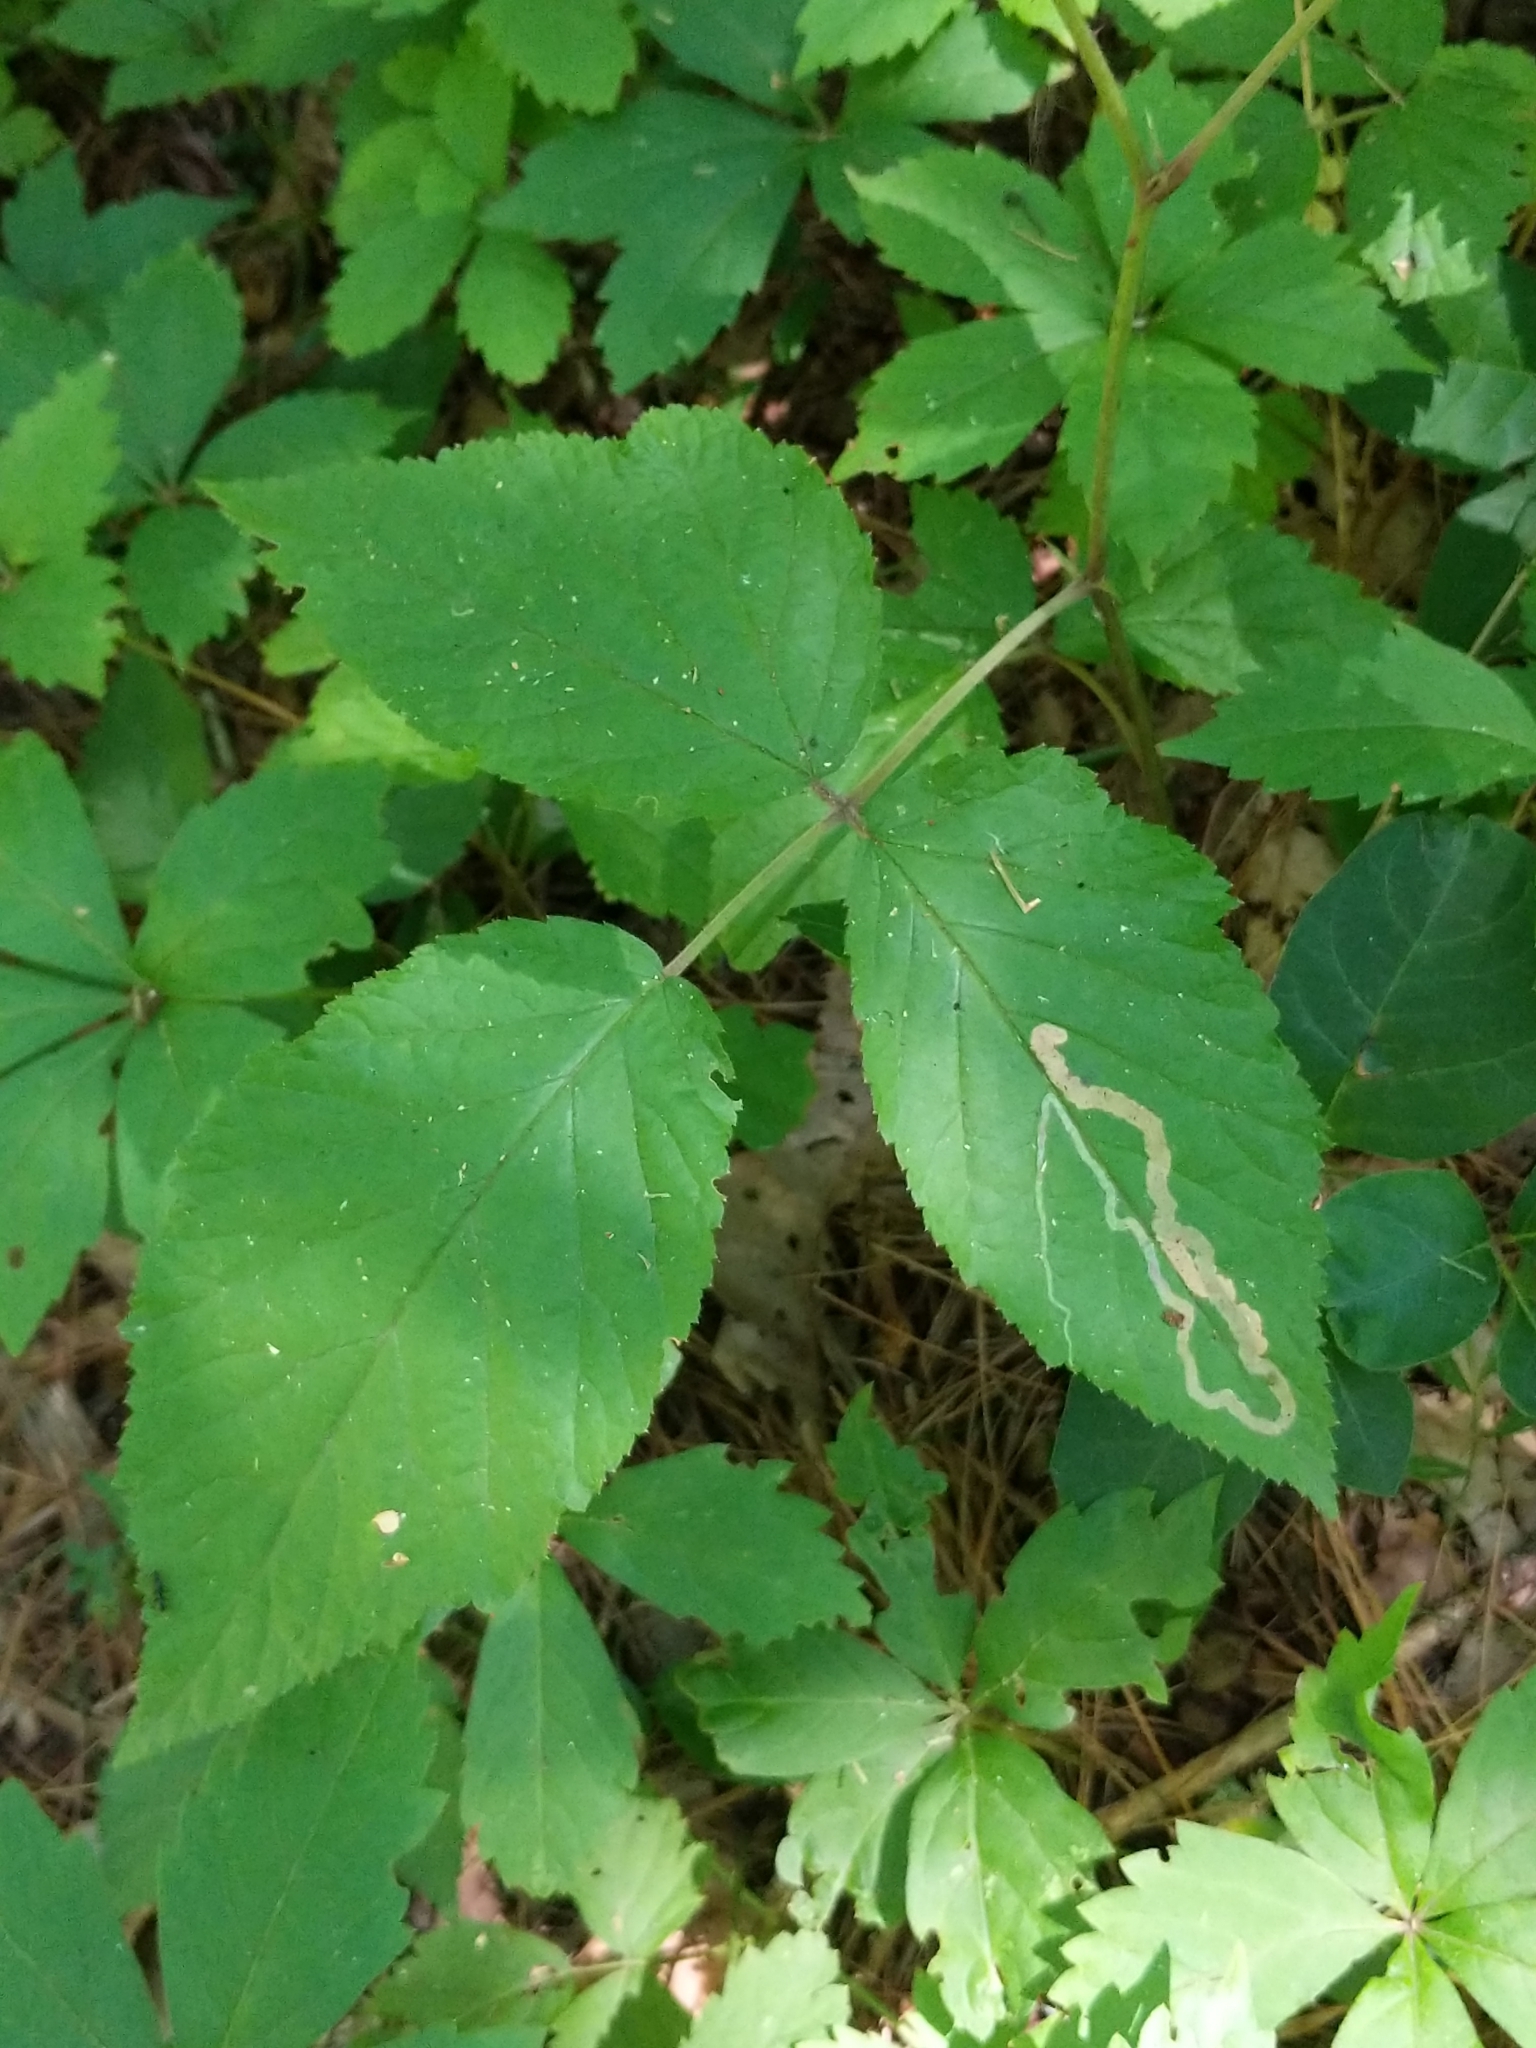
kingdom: Animalia
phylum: Arthropoda
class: Insecta
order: Diptera
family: Agromyzidae
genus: Agromyza
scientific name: Agromyza vockerothi
